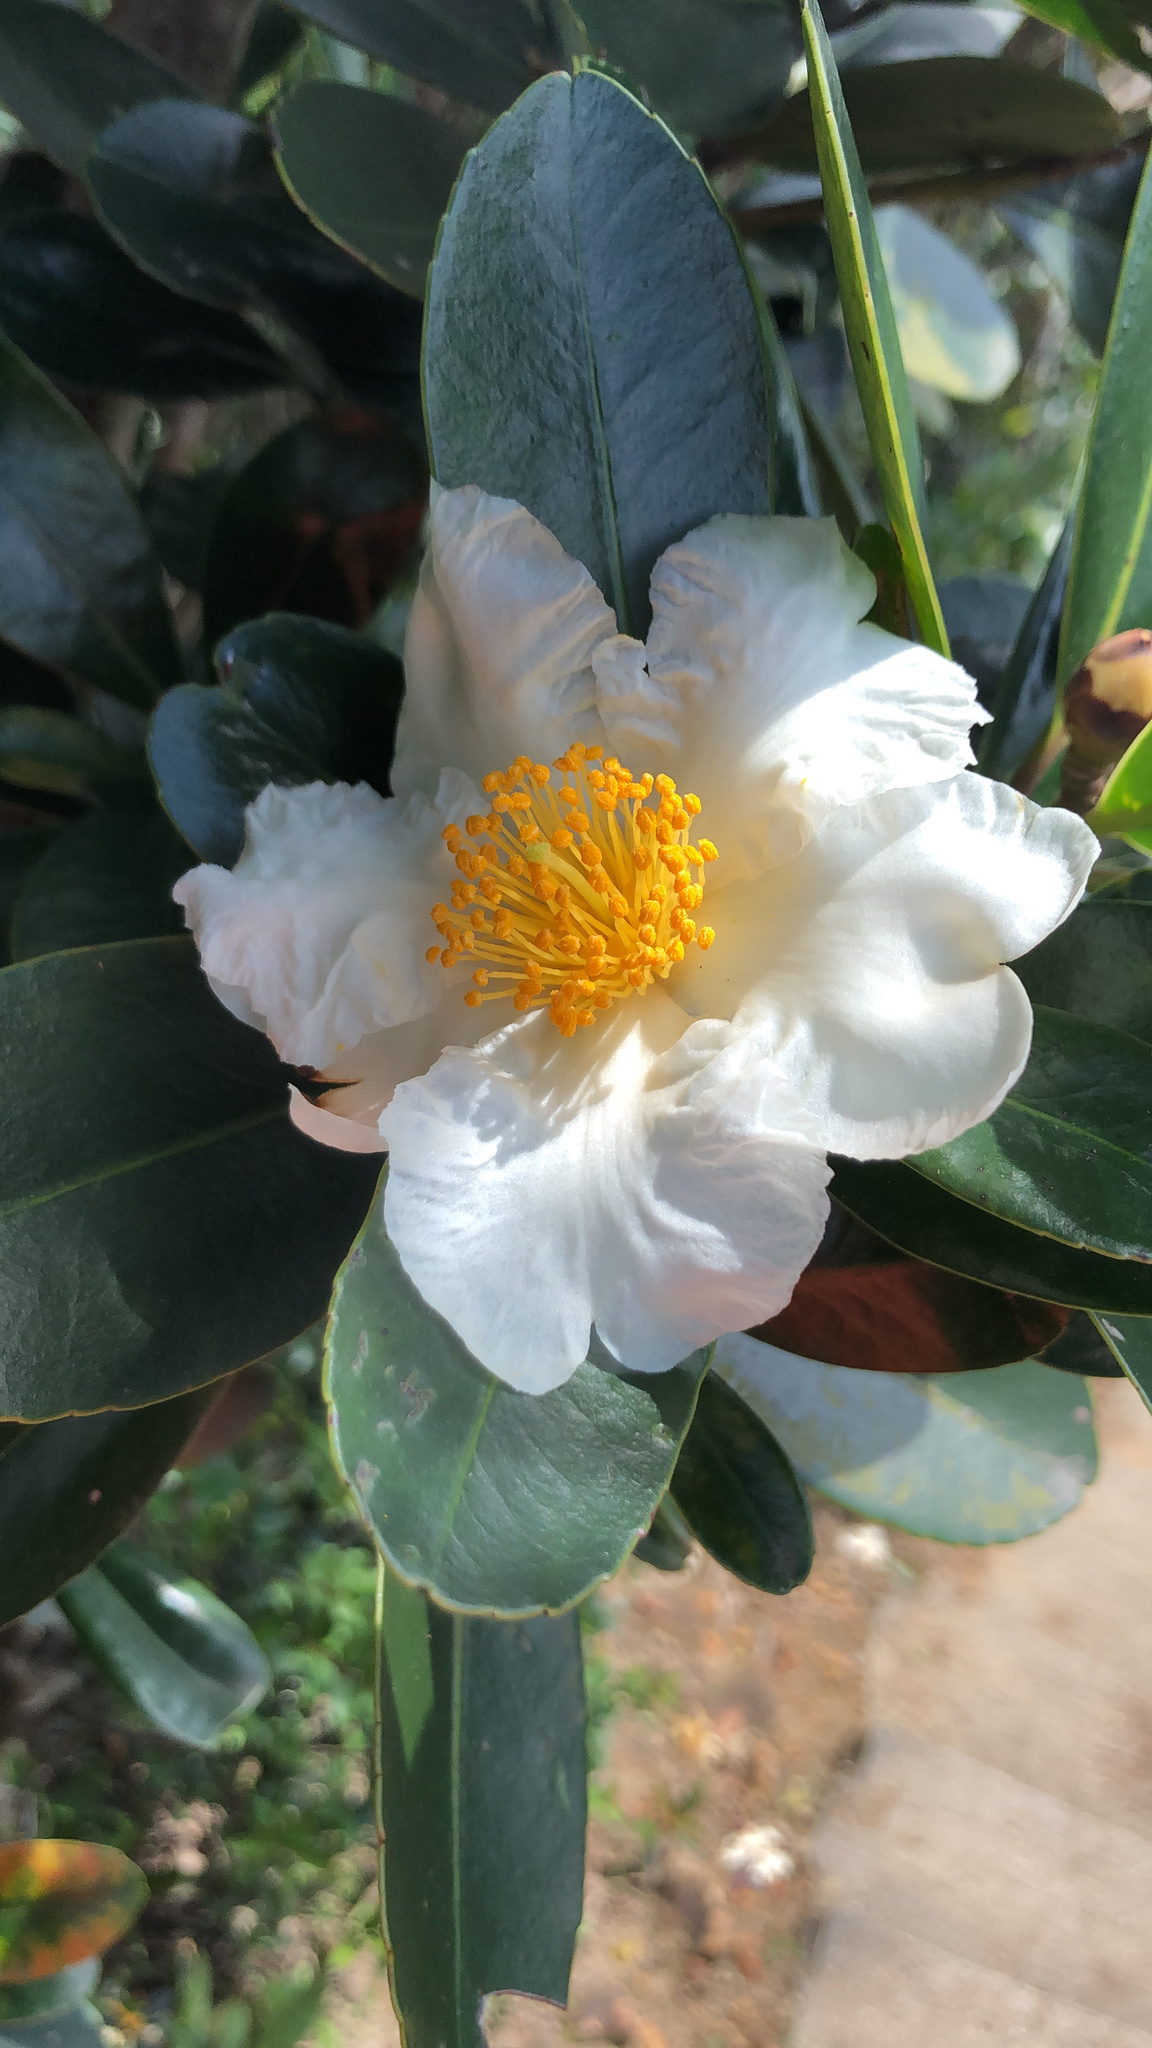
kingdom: Plantae
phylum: Tracheophyta
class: Magnoliopsida
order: Ericales
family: Theaceae
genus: Polyspora
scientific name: Polyspora axillaris
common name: Fried egg tree
